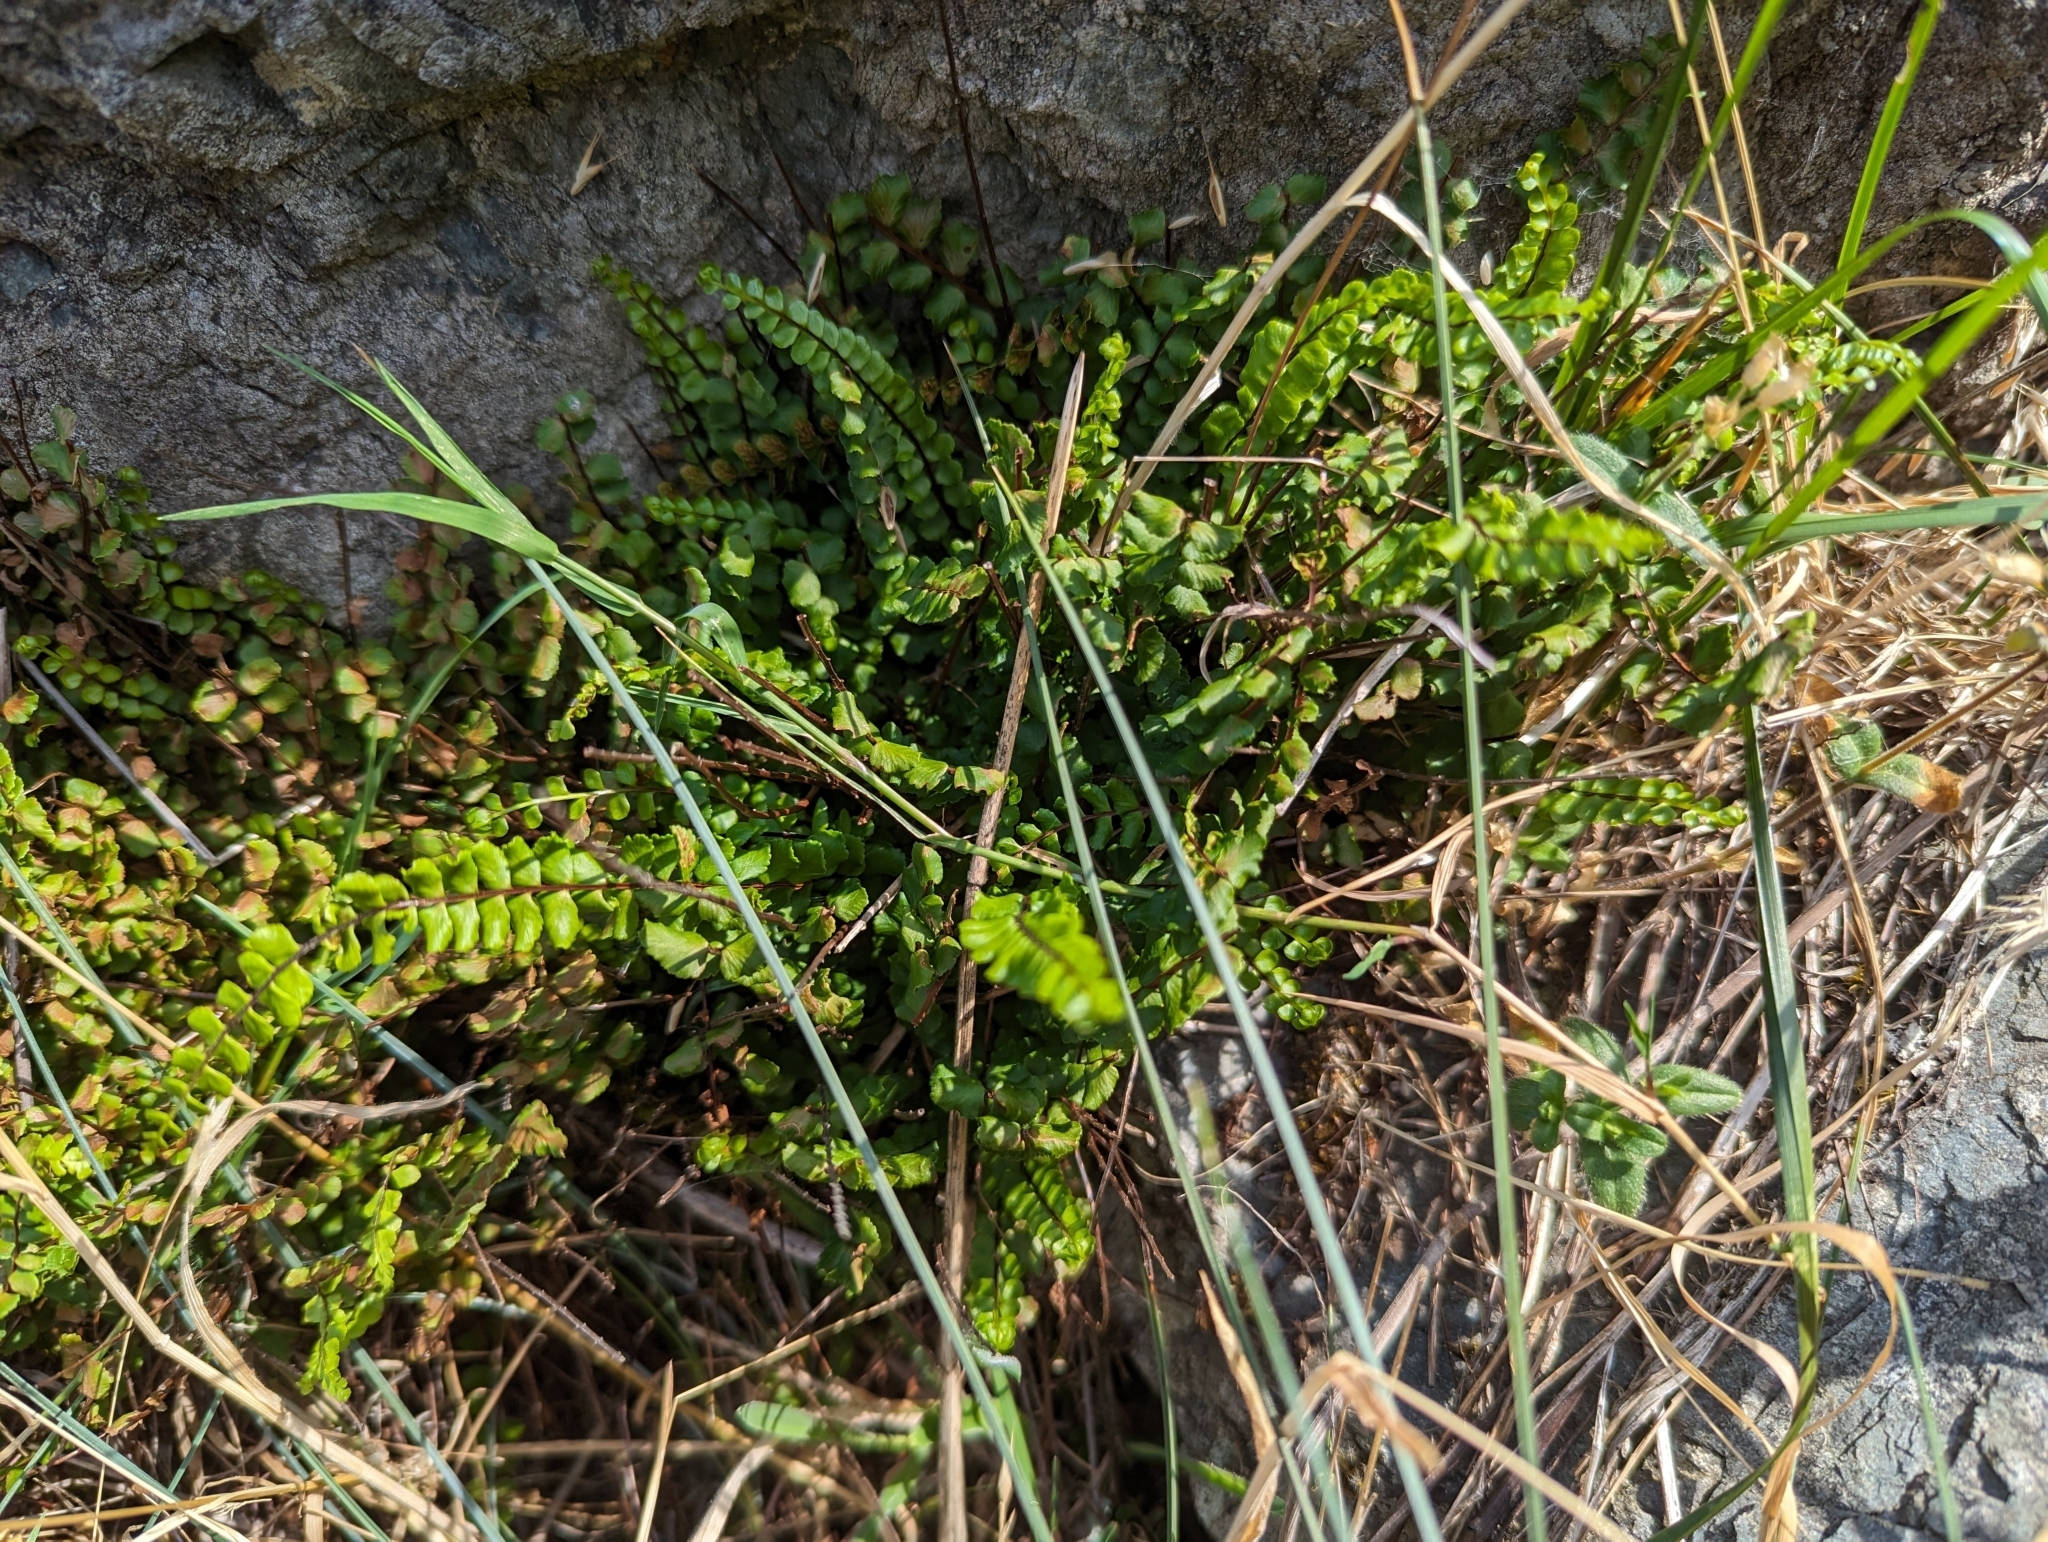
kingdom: Plantae
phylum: Tracheophyta
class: Polypodiopsida
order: Polypodiales
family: Aspleniaceae
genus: Asplenium
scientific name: Asplenium trichomanes
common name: Maidenhair spleenwort
